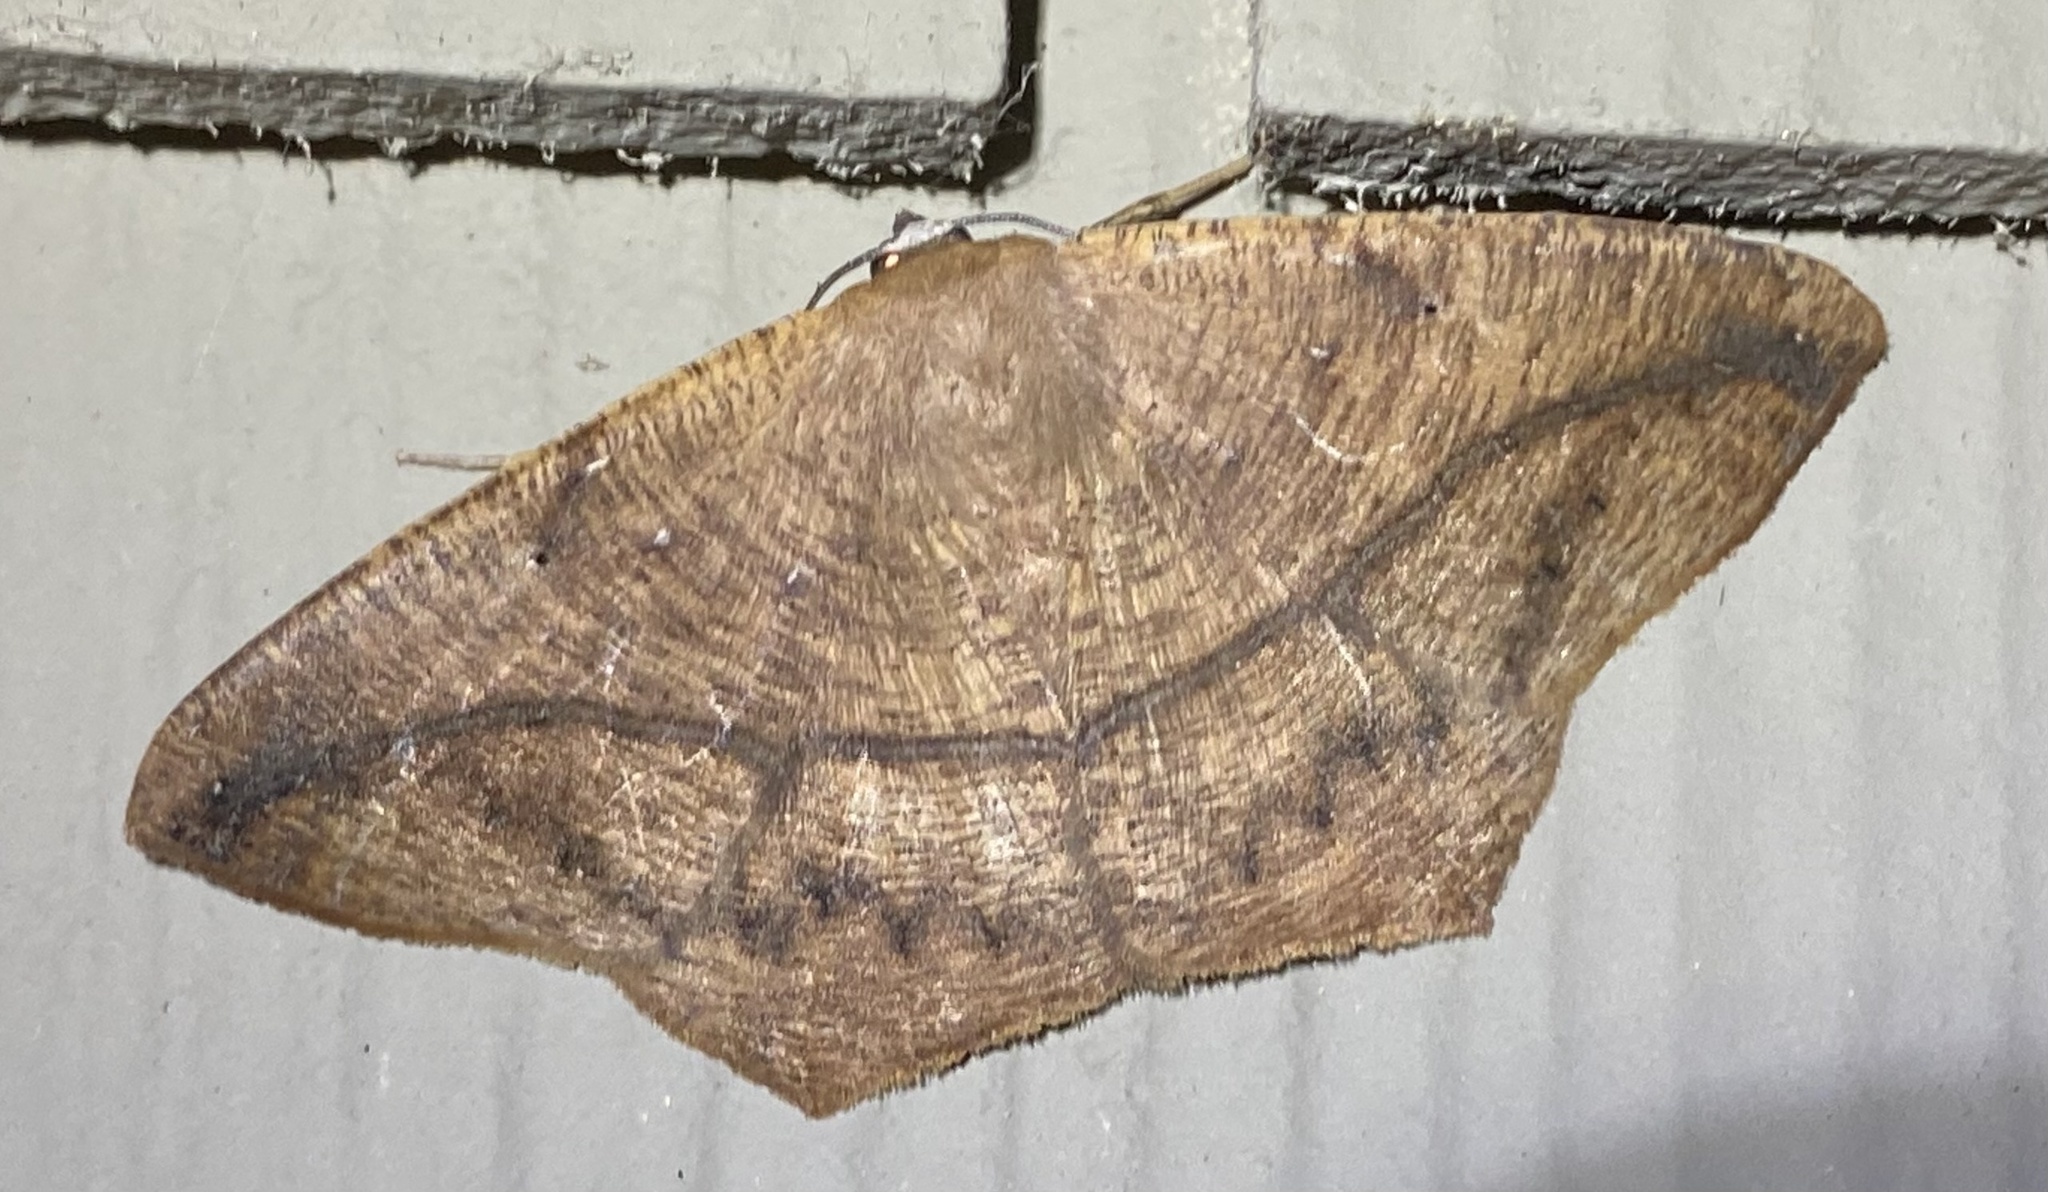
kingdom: Animalia
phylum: Arthropoda
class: Insecta
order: Lepidoptera
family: Geometridae
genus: Prochoerodes
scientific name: Prochoerodes lineola
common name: Large maple spanworm
